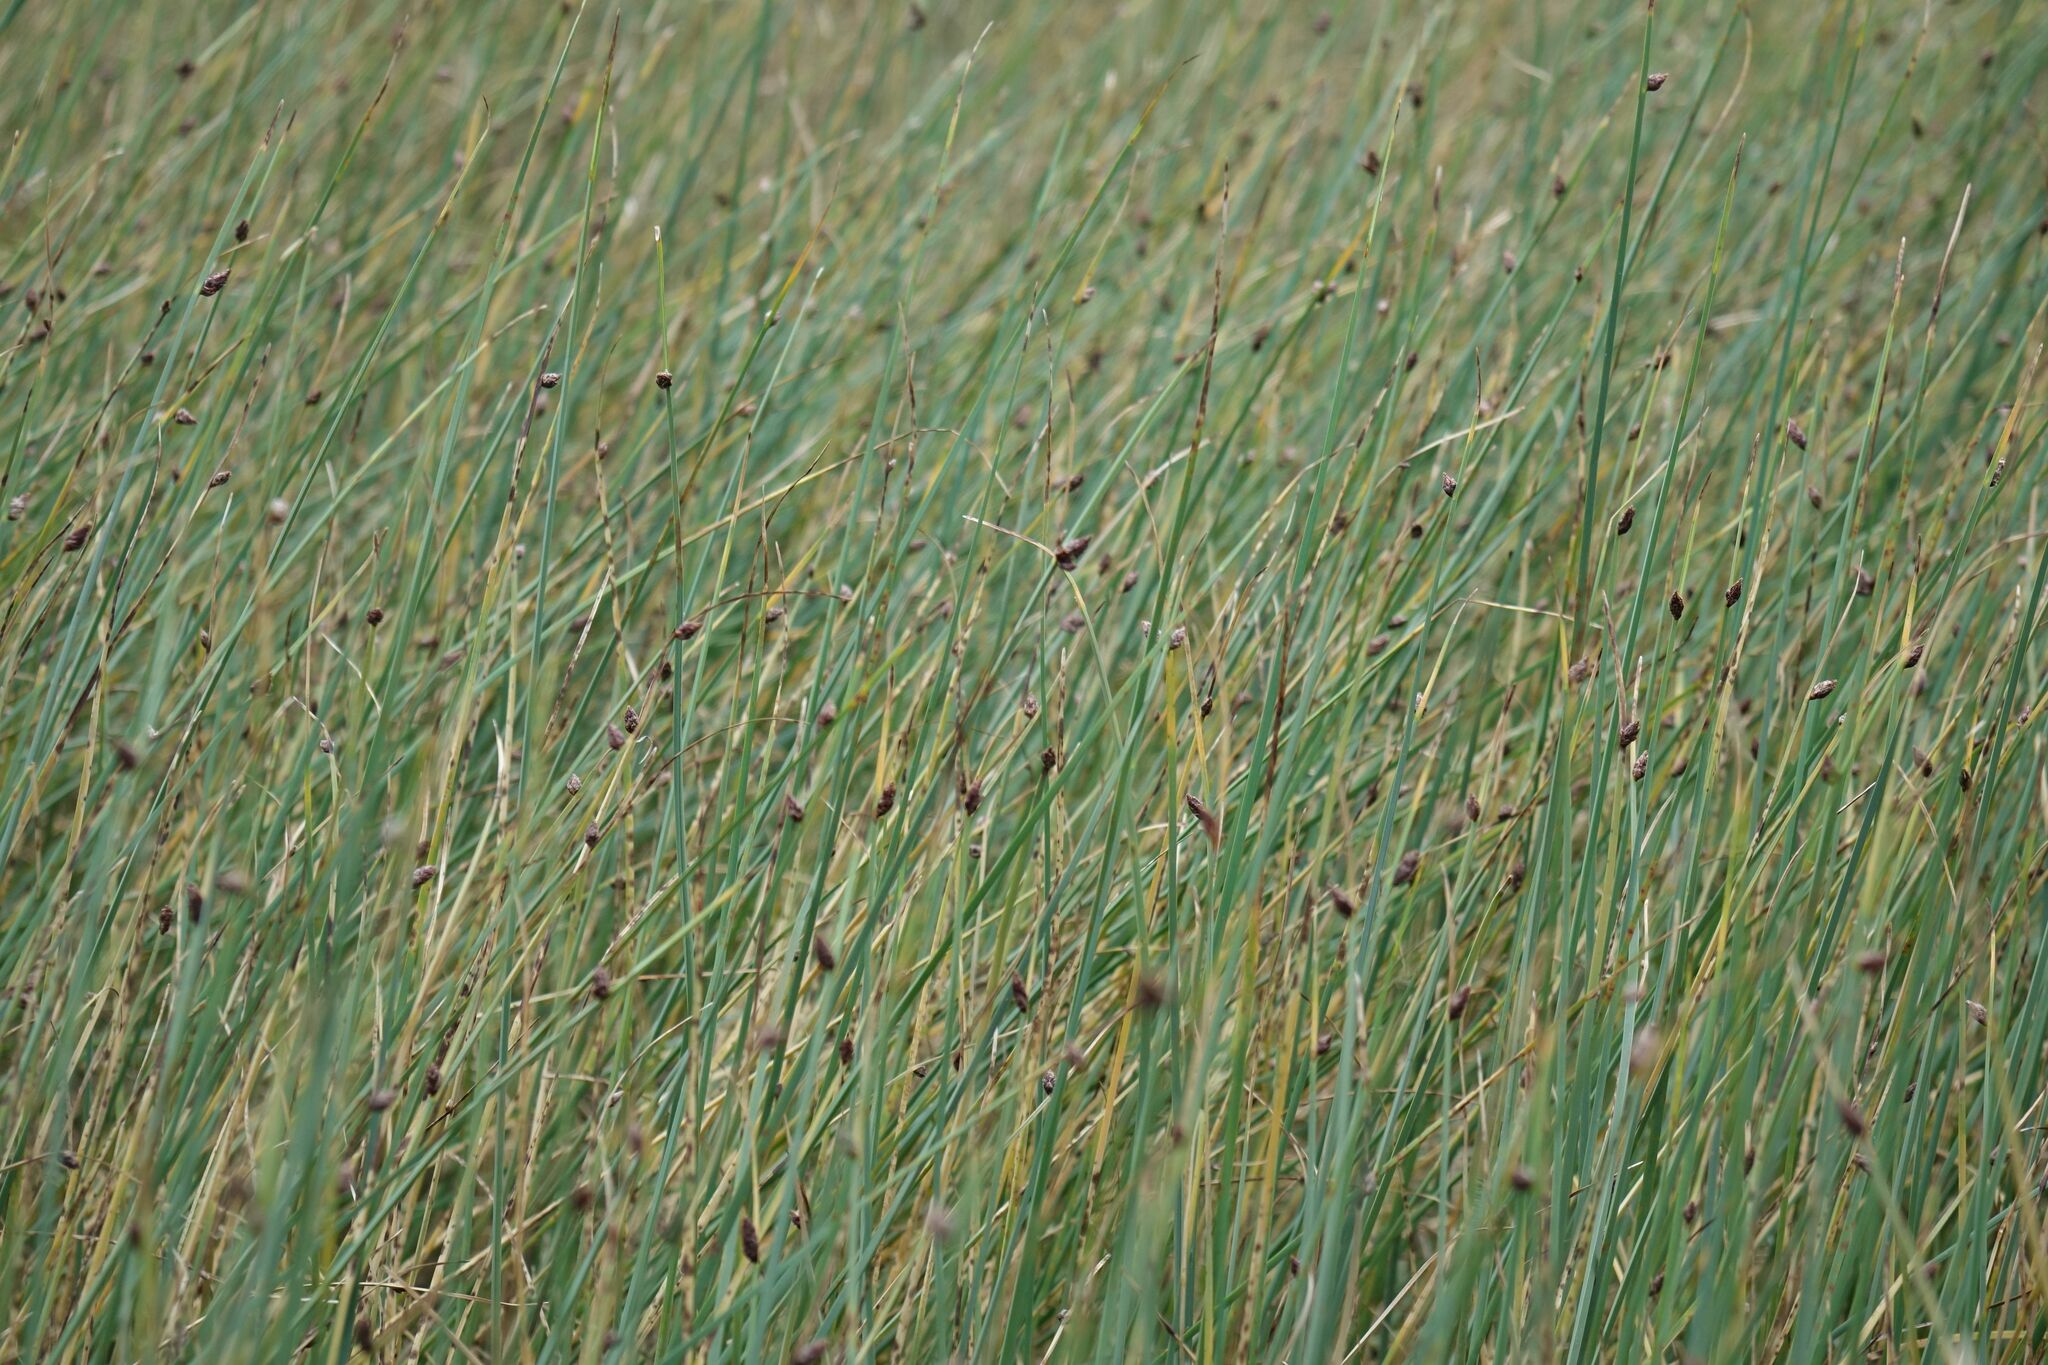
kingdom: Plantae
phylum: Tracheophyta
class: Liliopsida
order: Poales
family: Cyperaceae
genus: Schoenoplectus
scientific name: Schoenoplectus pungens
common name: Sharp club-rush
